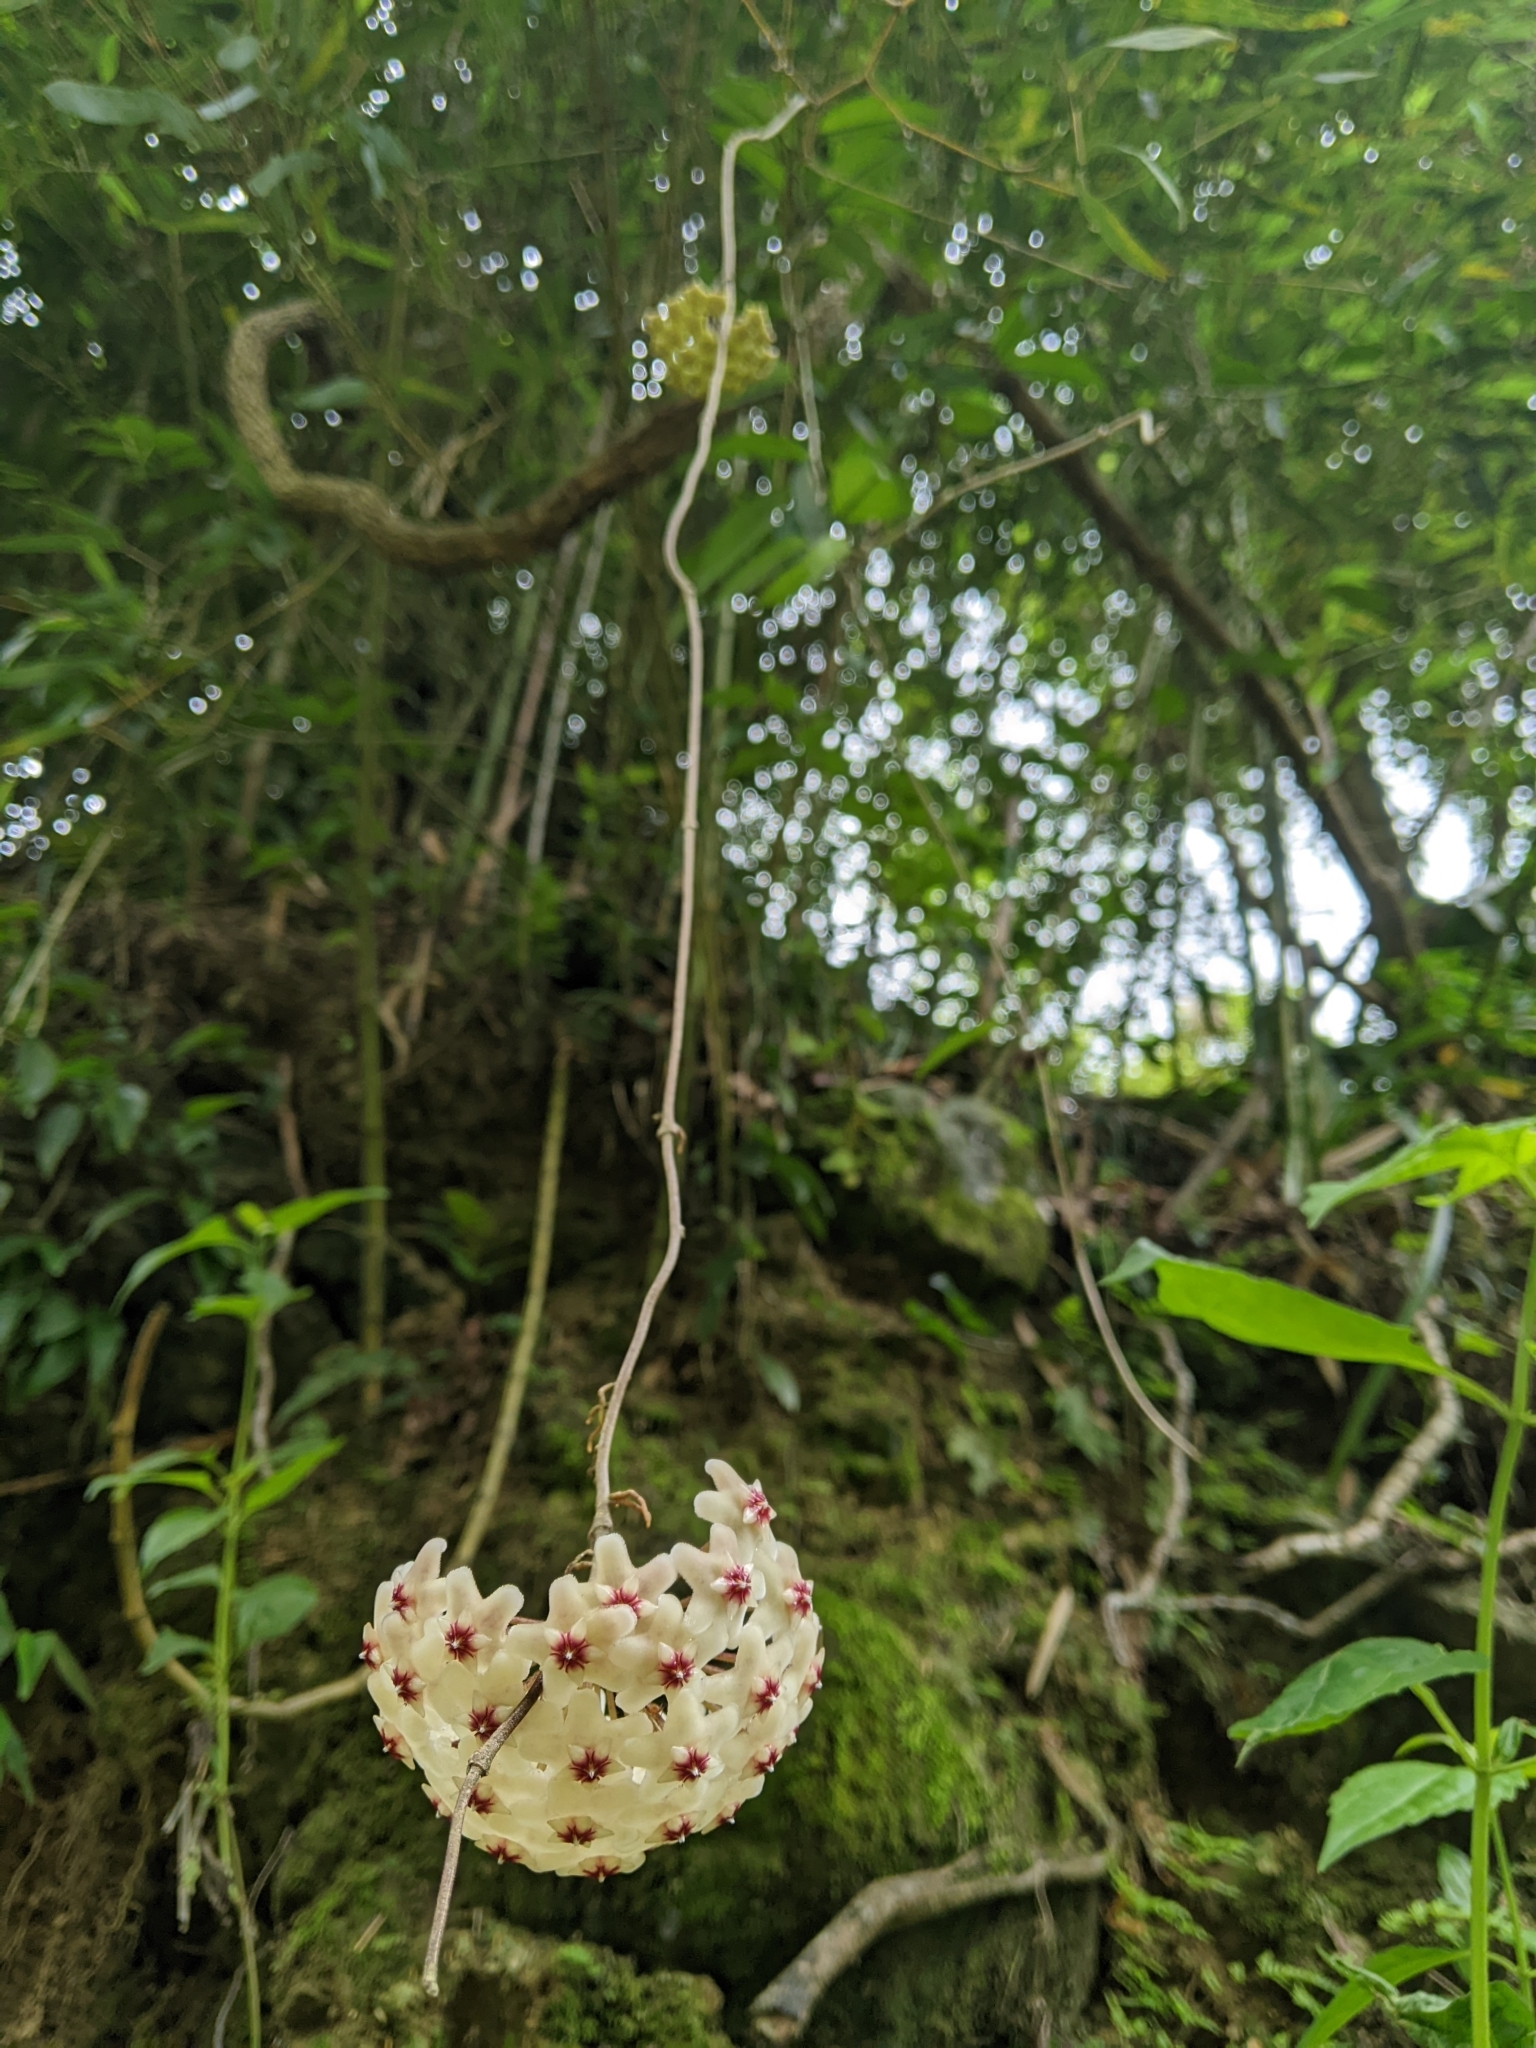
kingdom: Plantae
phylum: Tracheophyta
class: Magnoliopsida
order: Gentianales
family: Apocynaceae
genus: Hoya
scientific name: Hoya carnosa
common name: Honeyplant
